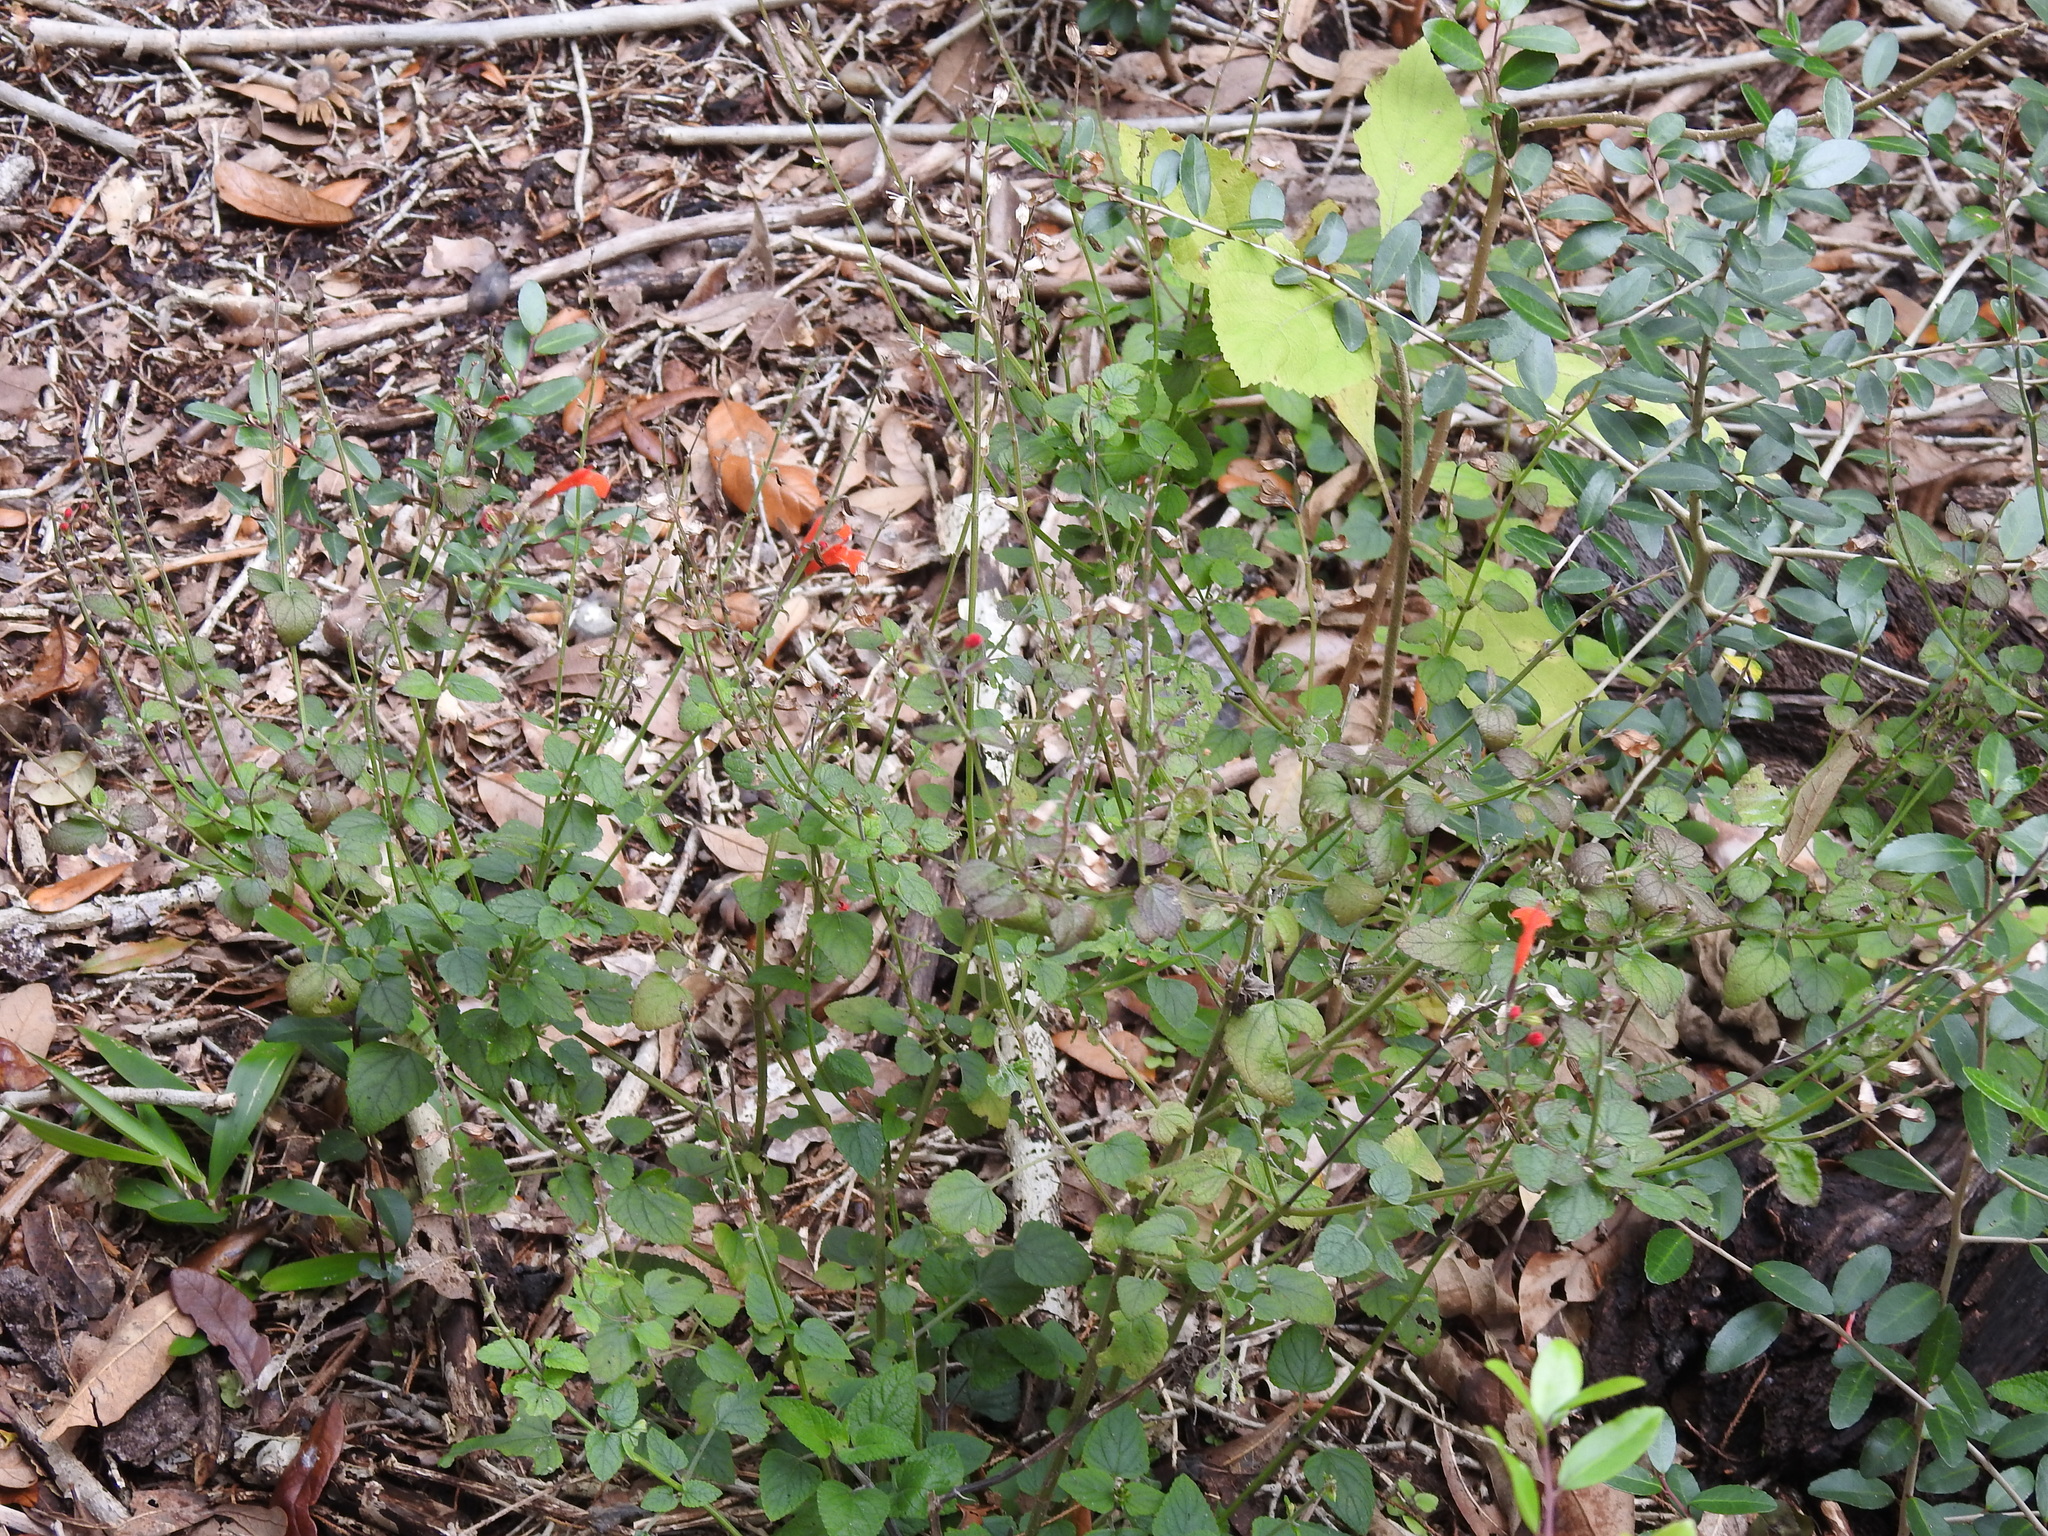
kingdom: Plantae
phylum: Tracheophyta
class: Magnoliopsida
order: Lamiales
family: Lamiaceae
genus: Salvia
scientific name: Salvia coccinea
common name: Blood sage
